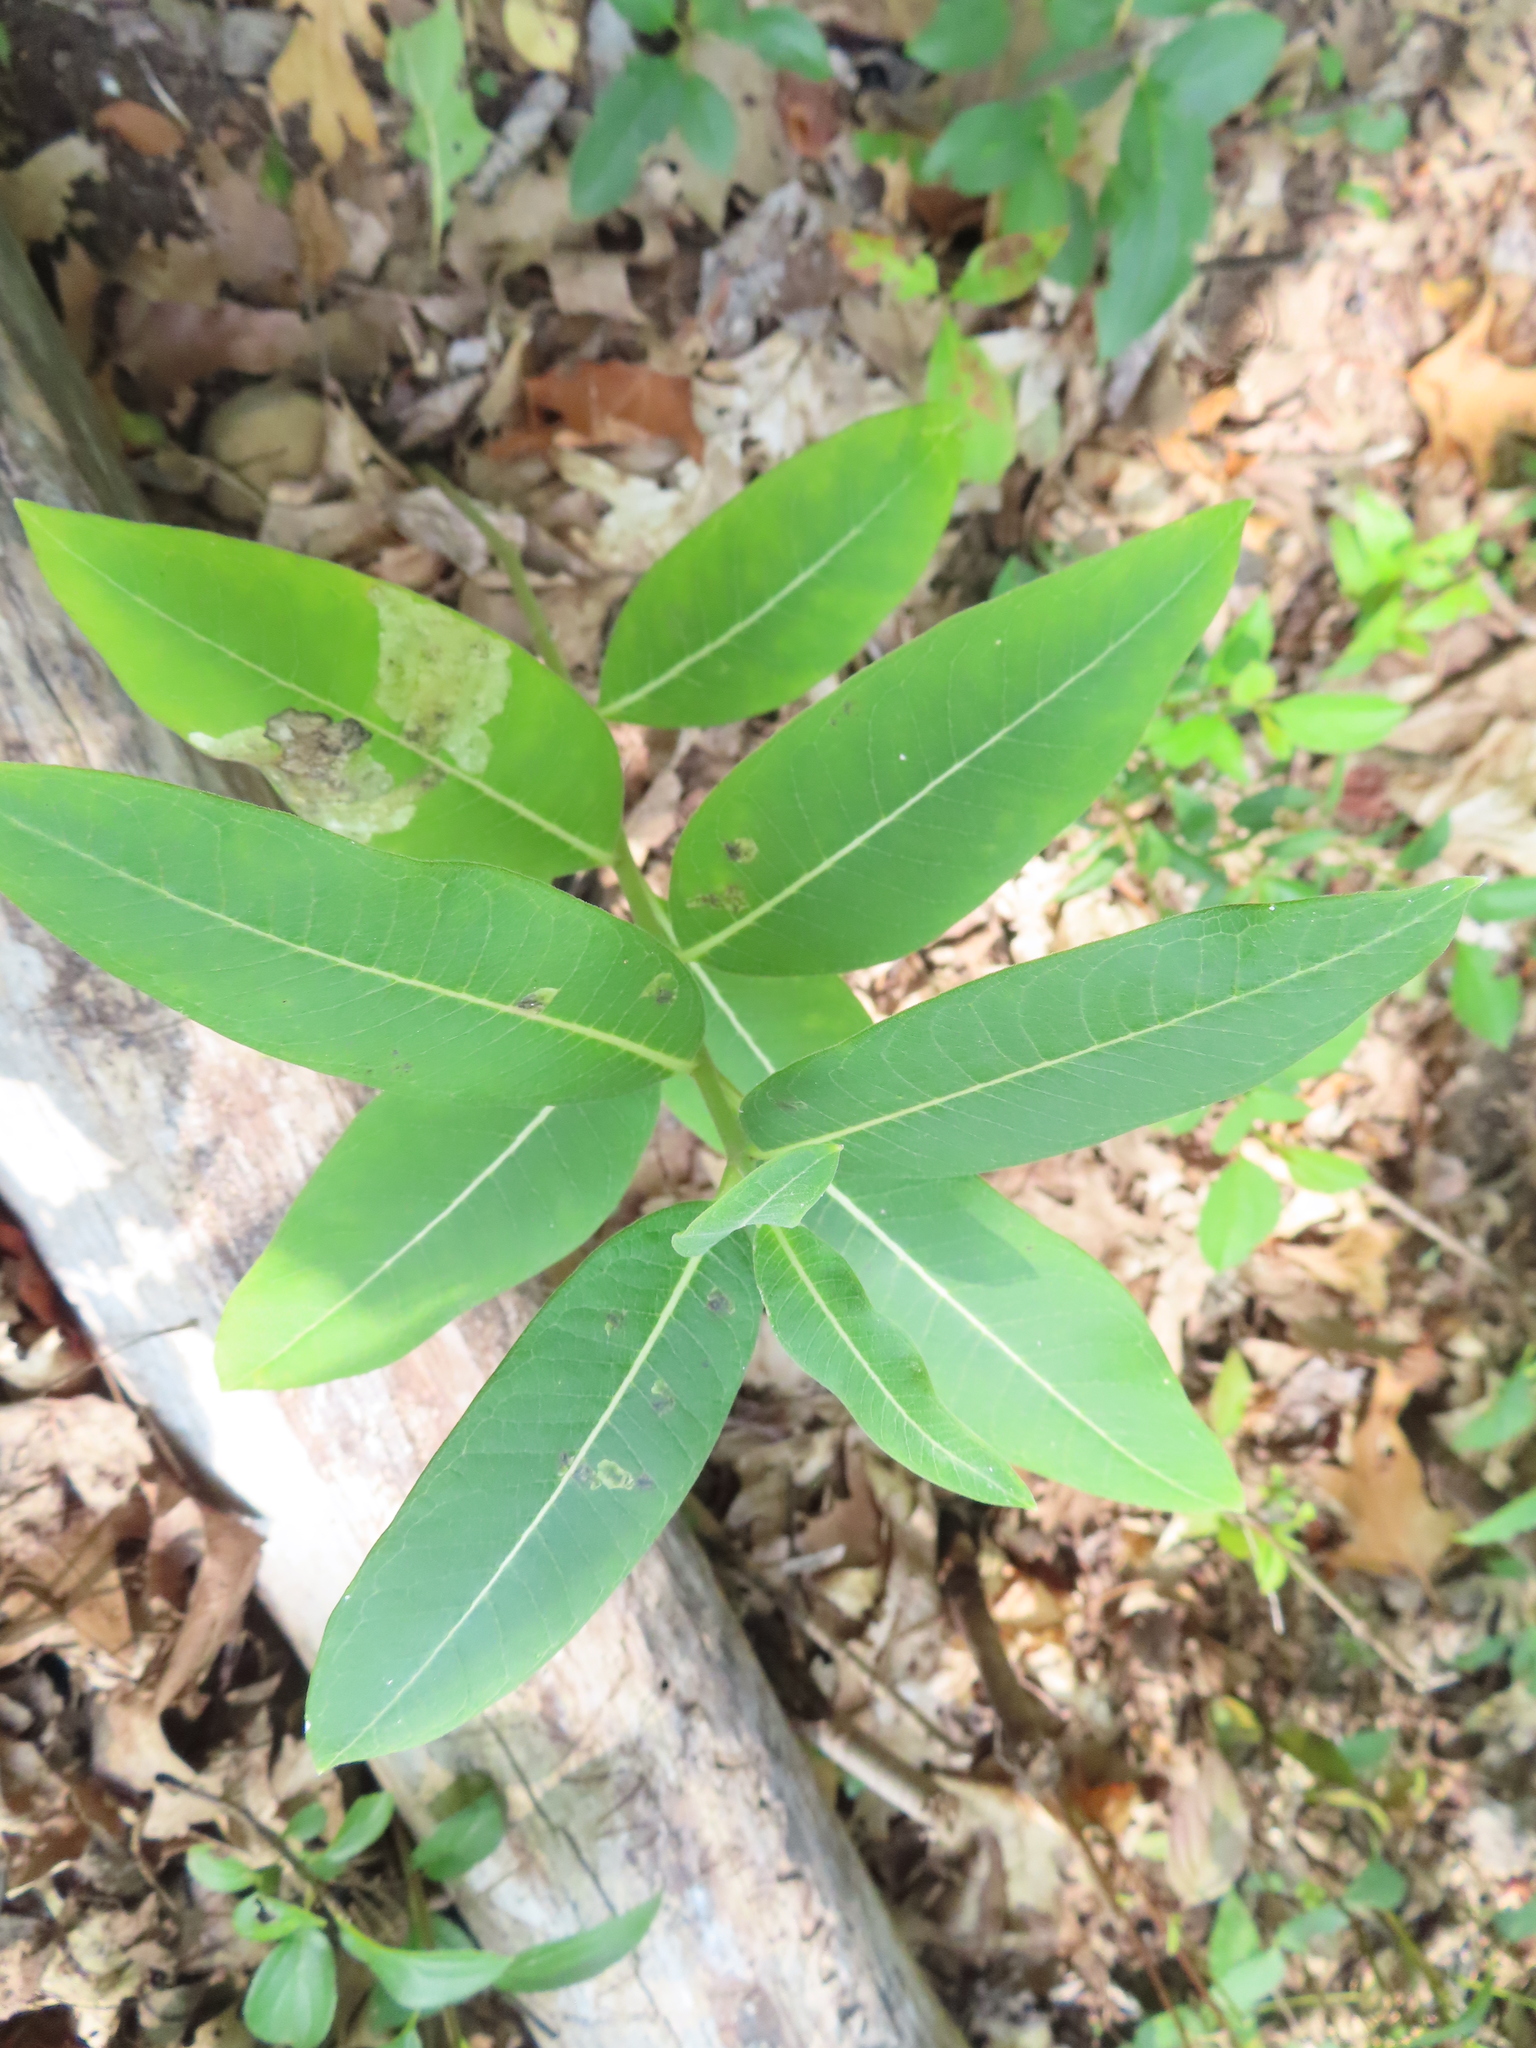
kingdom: Plantae
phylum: Tracheophyta
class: Magnoliopsida
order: Gentianales
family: Apocynaceae
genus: Asclepias
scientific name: Asclepias syriaca
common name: Common milkweed
